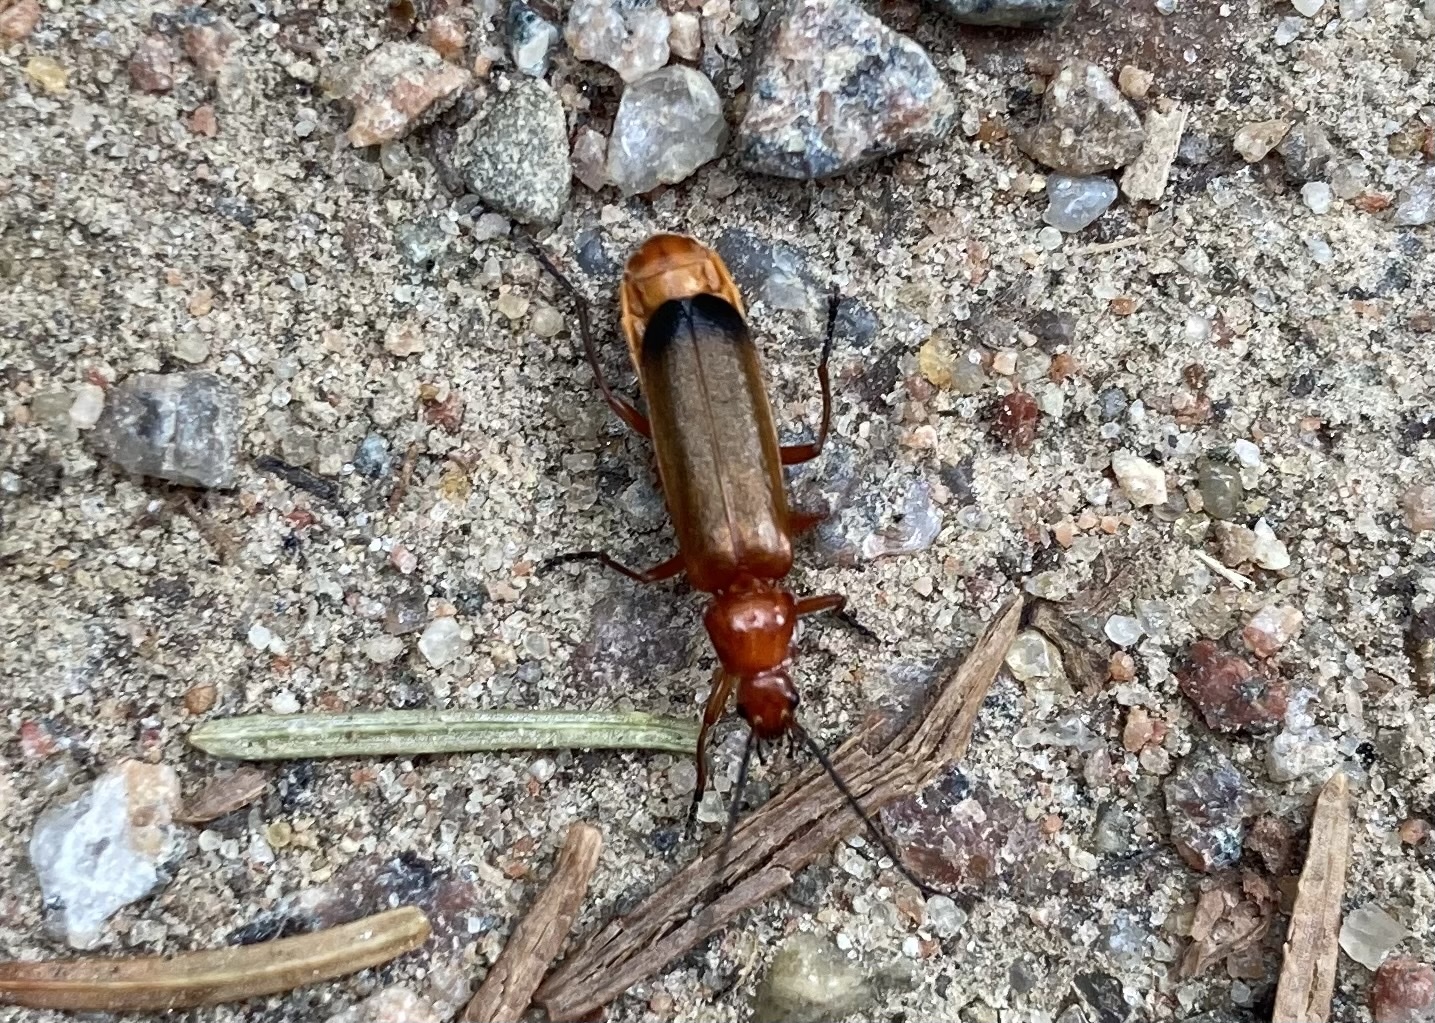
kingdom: Animalia
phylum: Arthropoda
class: Insecta
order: Coleoptera
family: Cantharidae
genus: Rhagonycha
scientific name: Rhagonycha fulva
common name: Common red soldier beetle
